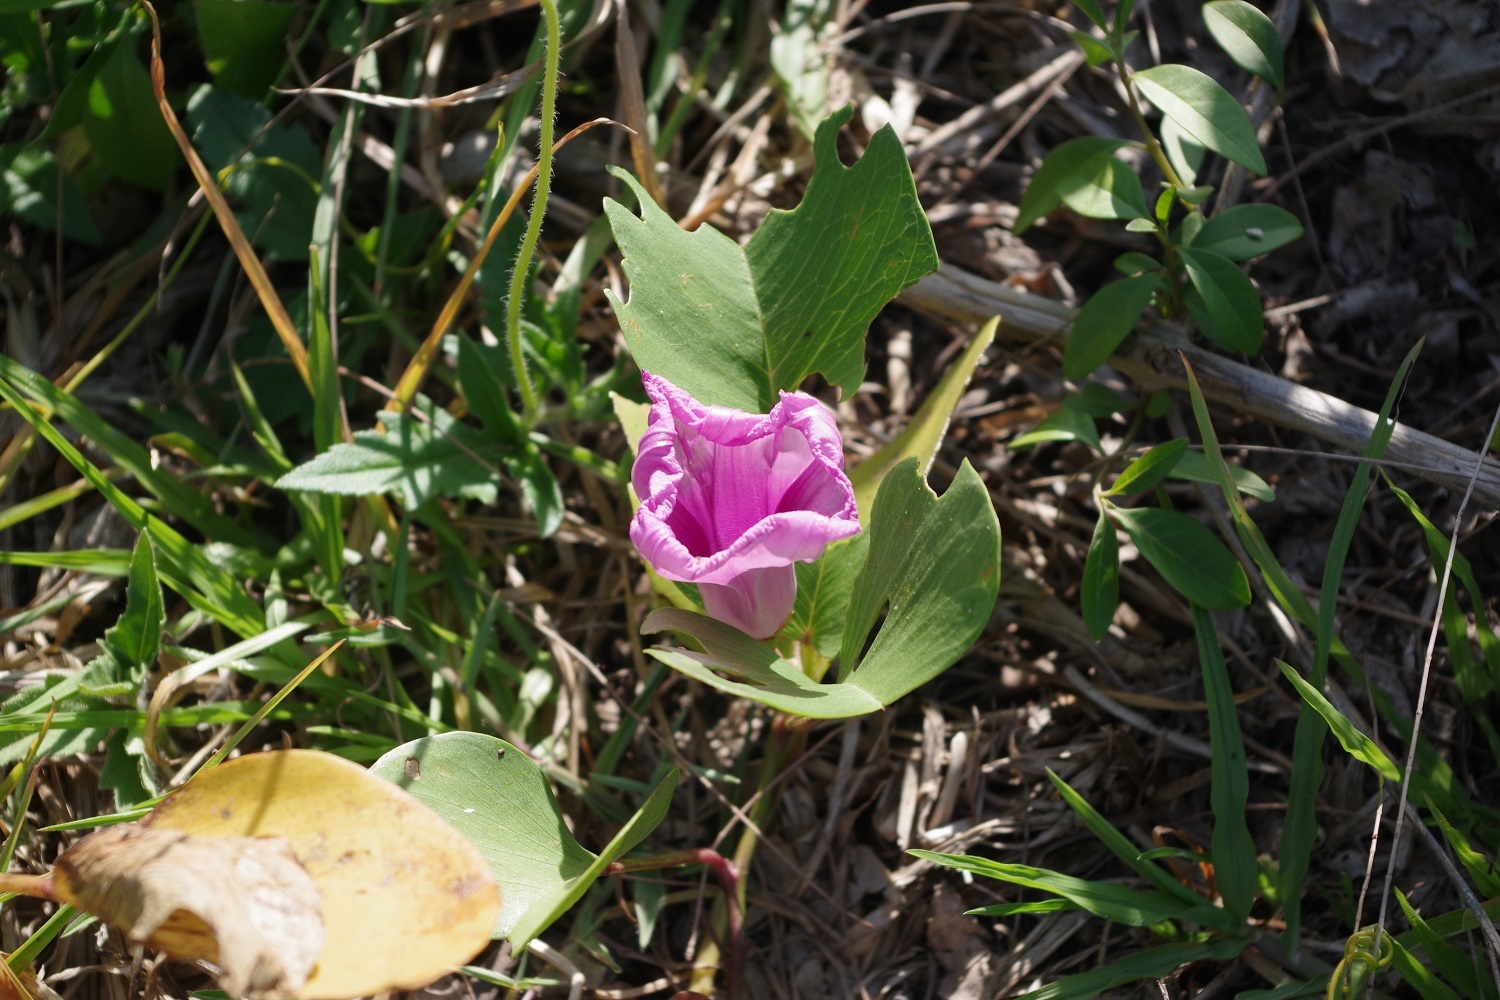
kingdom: Plantae
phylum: Tracheophyta
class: Magnoliopsida
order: Solanales
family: Convolvulaceae
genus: Ipomoea
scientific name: Ipomoea pes-caprae
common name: Beach morning glory
